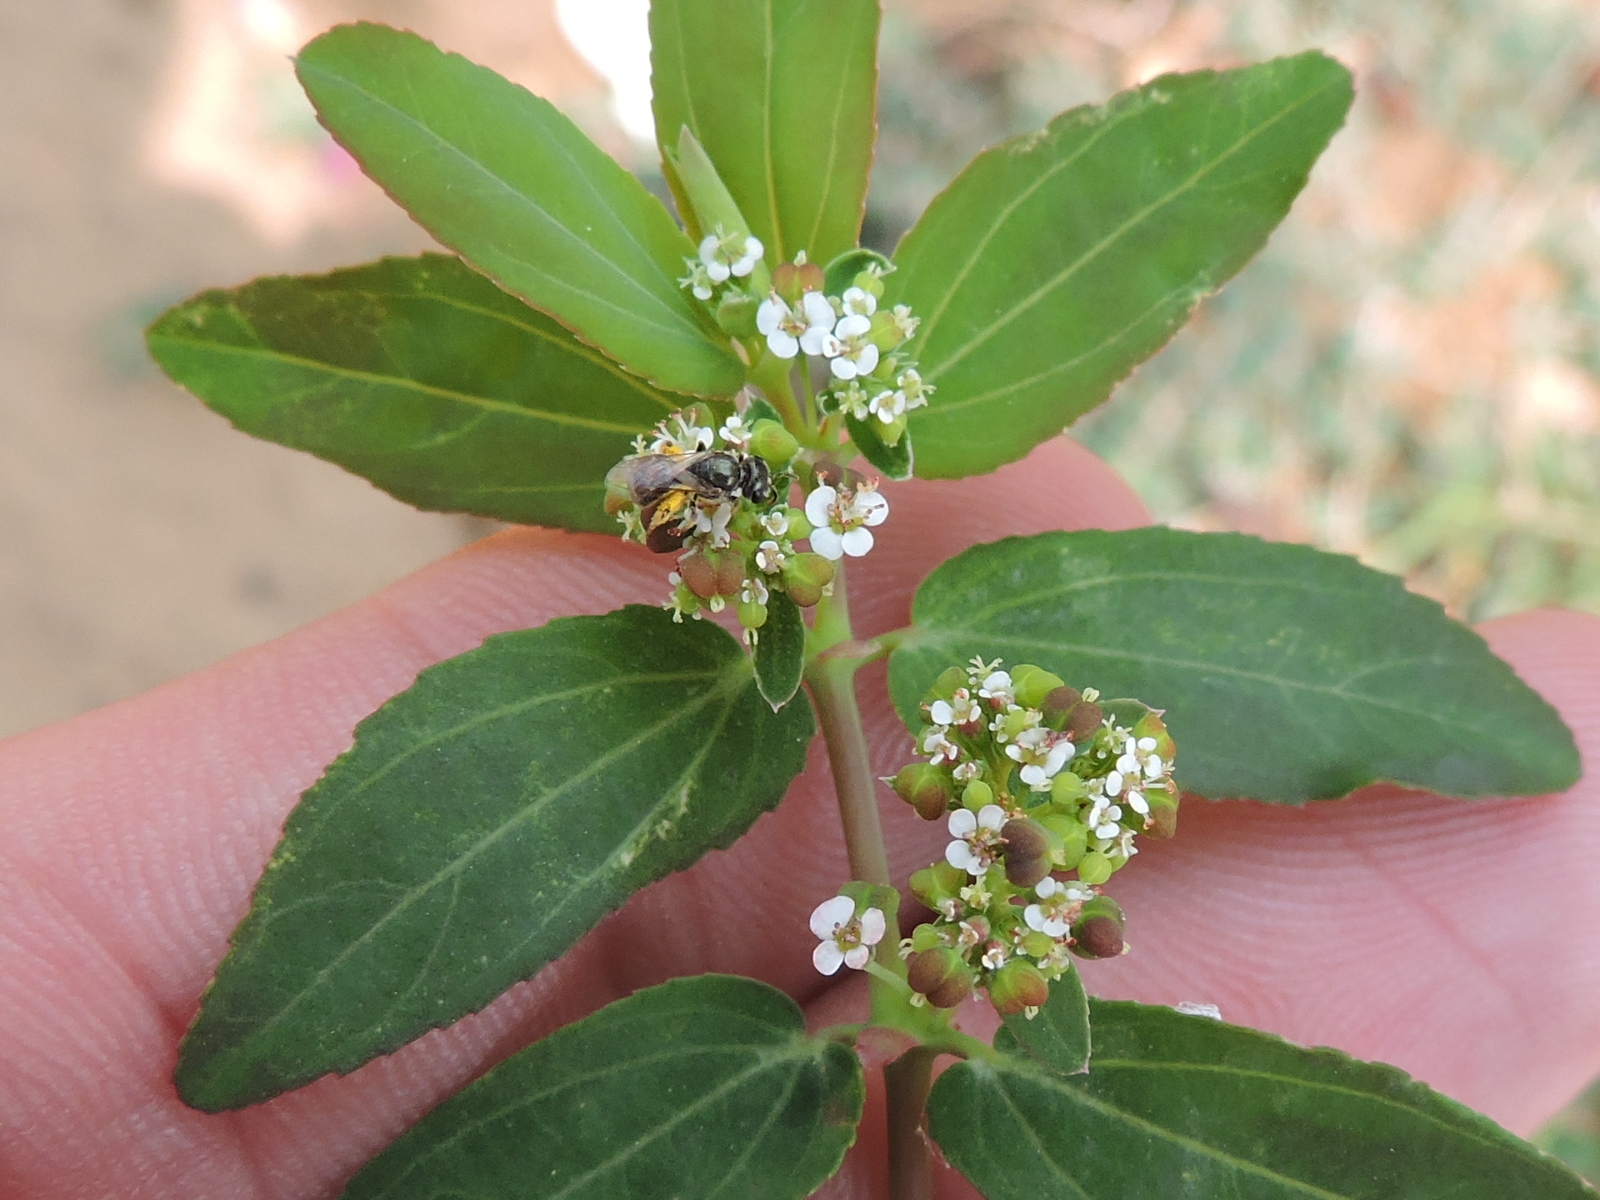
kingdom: Plantae
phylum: Tracheophyta
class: Magnoliopsida
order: Malpighiales
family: Euphorbiaceae
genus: Euphorbia
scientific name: Euphorbia hypericifolia
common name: Graceful sandmat
